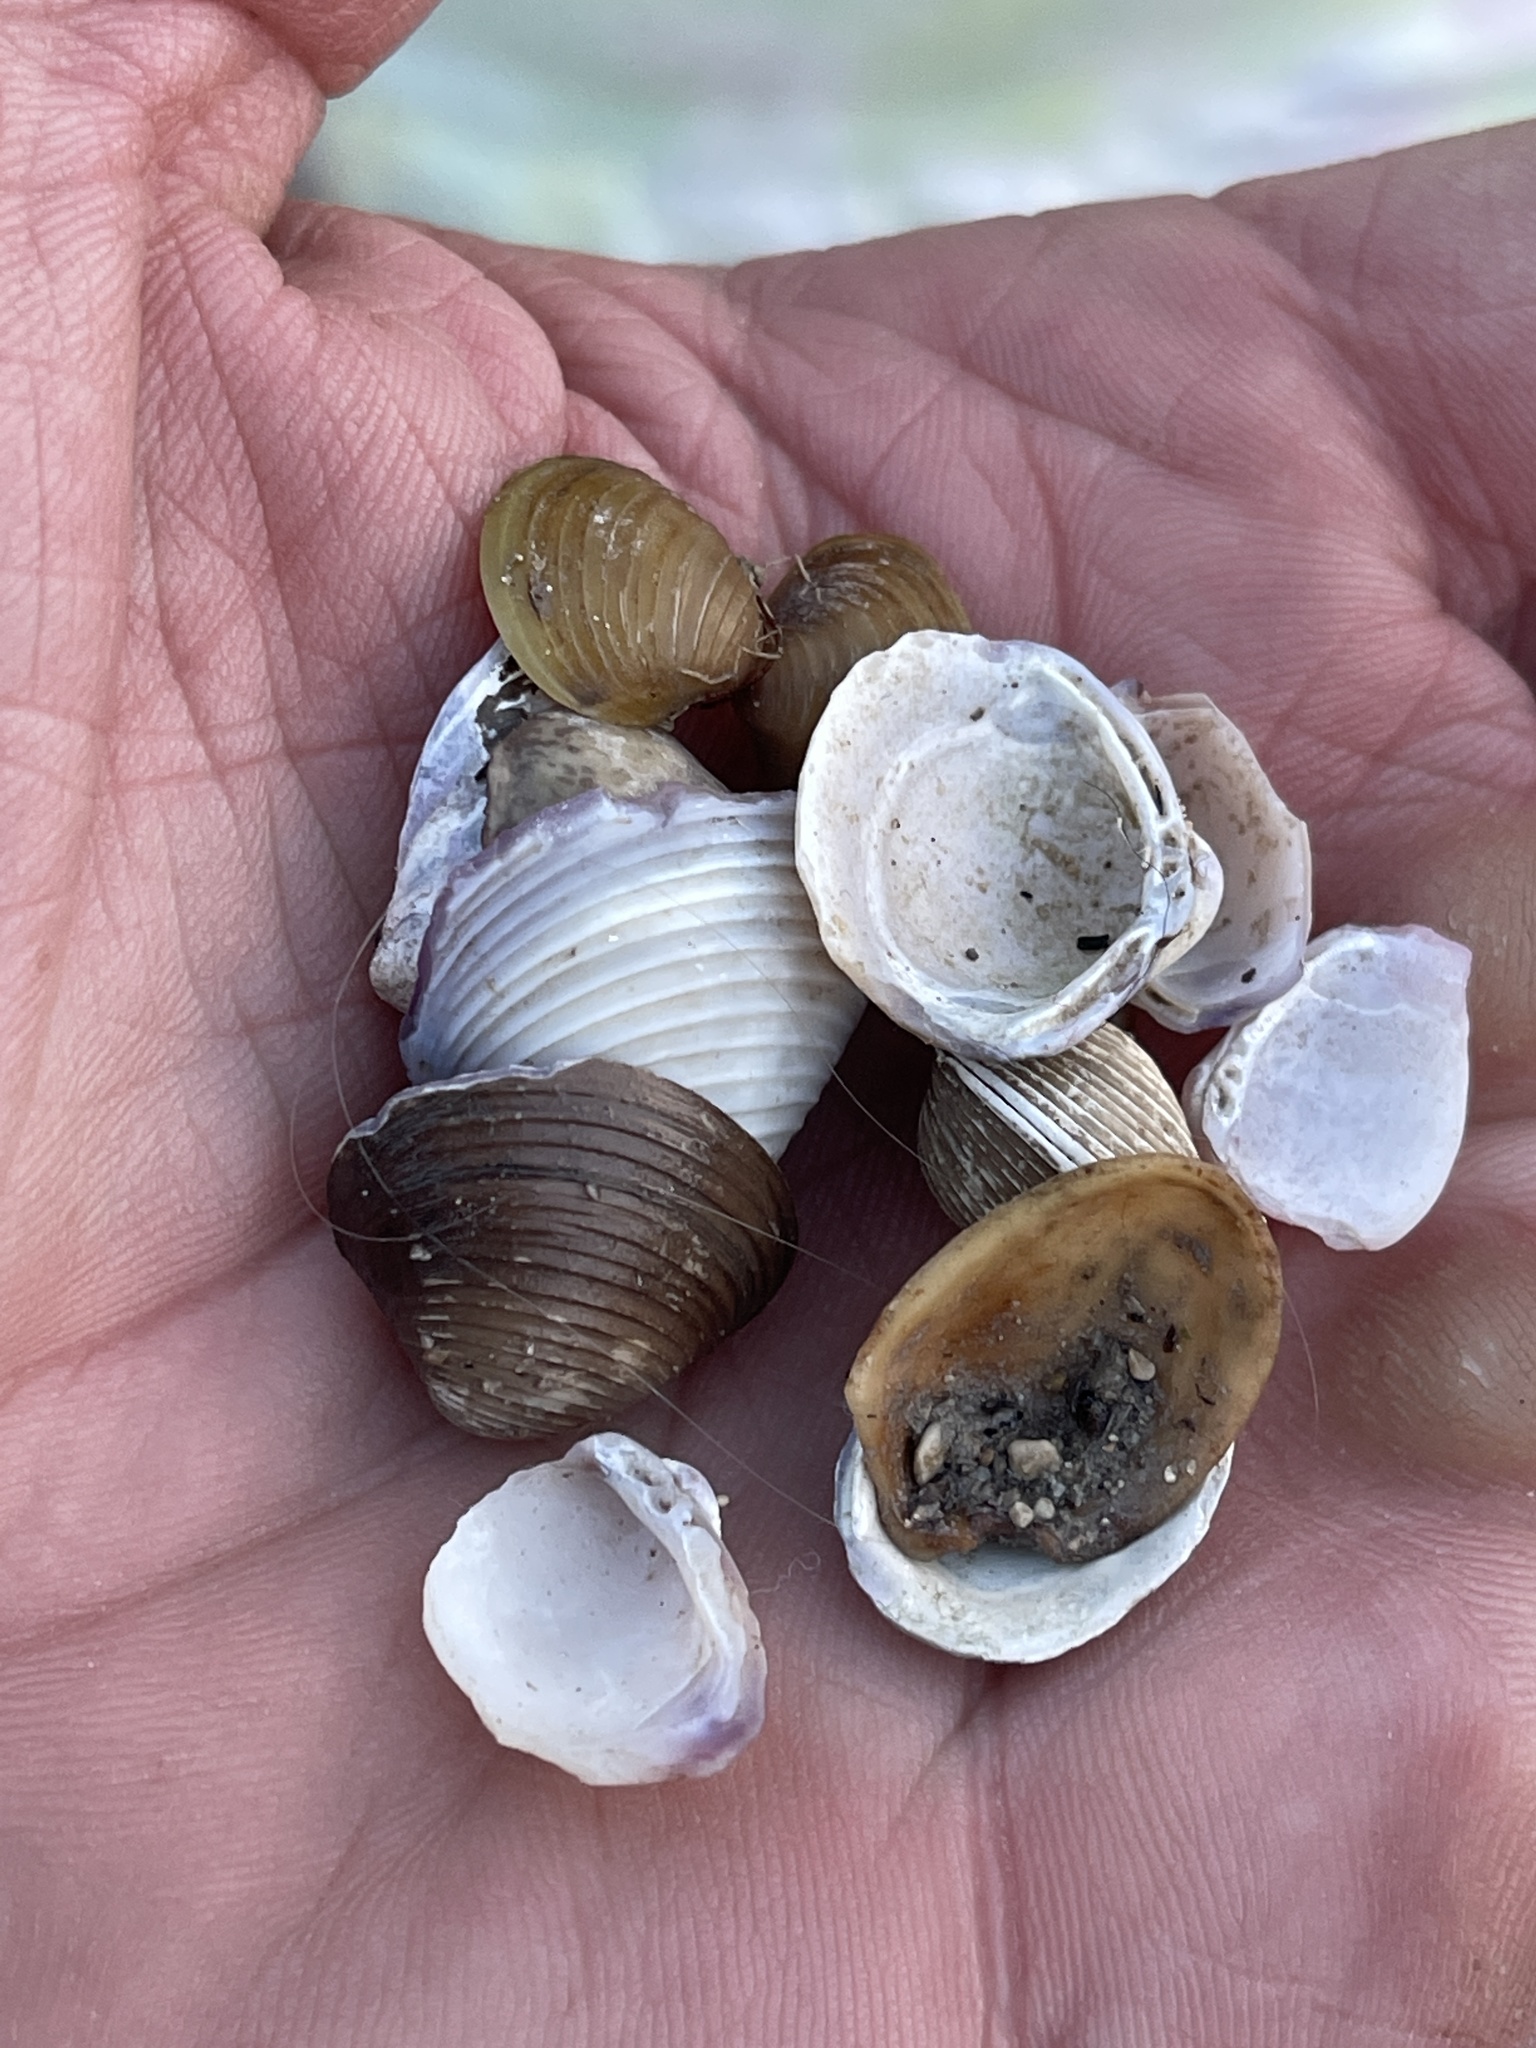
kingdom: Animalia
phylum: Mollusca
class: Bivalvia
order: Venerida
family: Cyrenidae
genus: Corbicula
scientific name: Corbicula fluminea
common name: Asian clam
